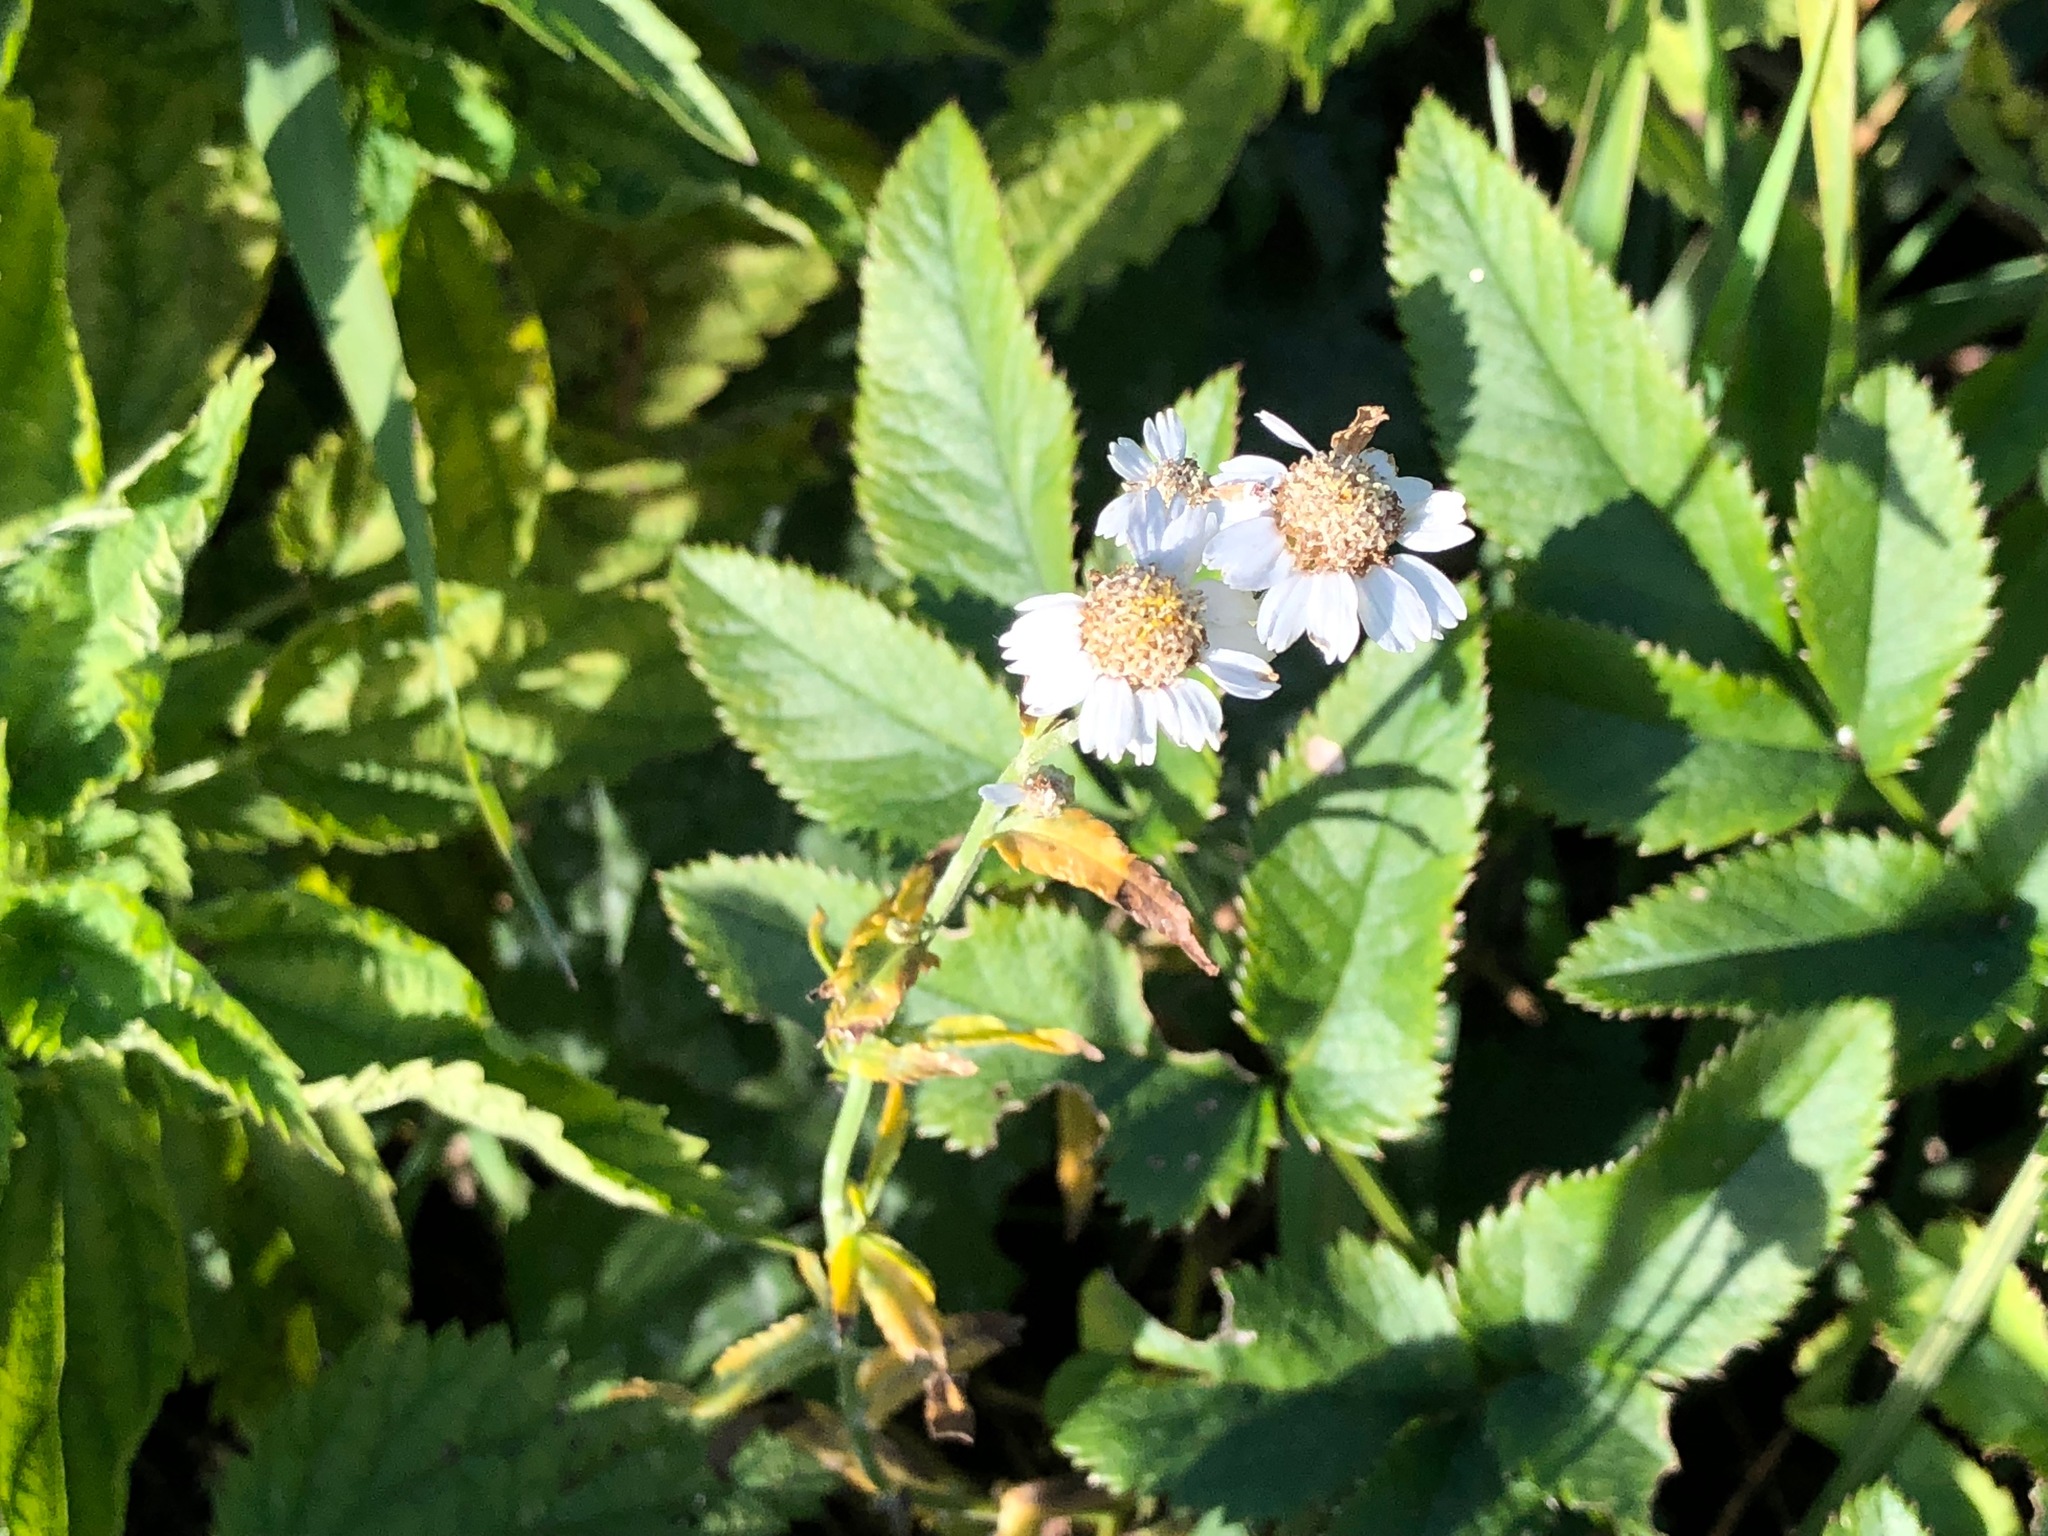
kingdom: Plantae
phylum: Tracheophyta
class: Magnoliopsida
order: Asterales
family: Asteraceae
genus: Achillea
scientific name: Achillea ptarmica
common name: Sneezeweed
